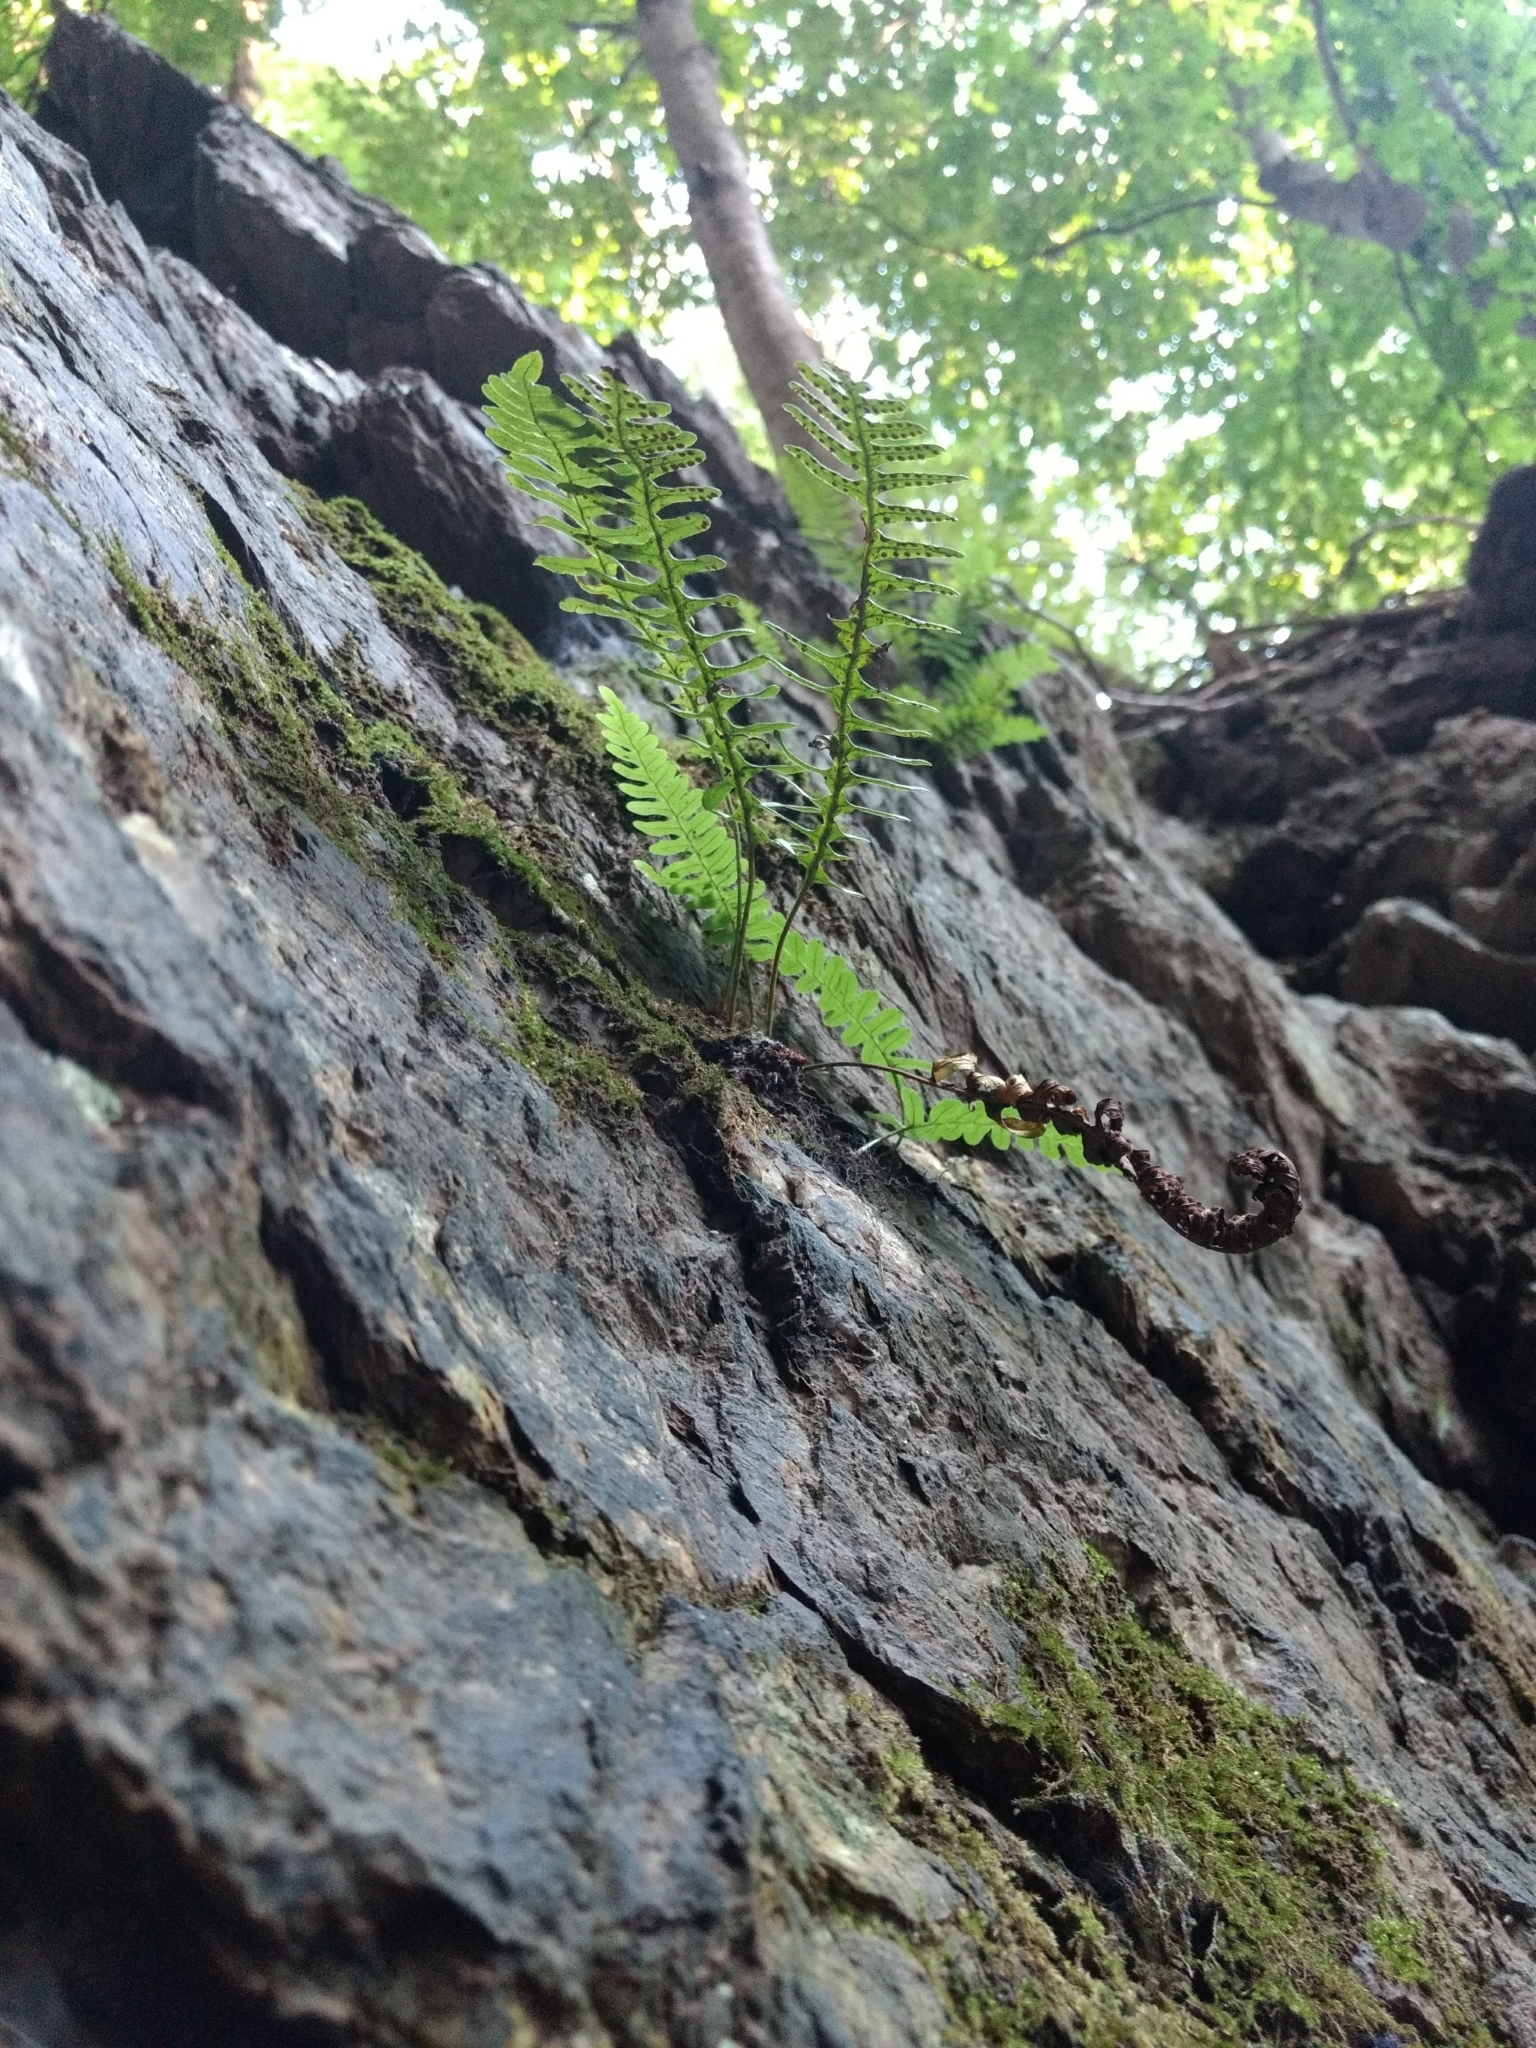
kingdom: Plantae
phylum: Tracheophyta
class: Polypodiopsida
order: Polypodiales
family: Polypodiaceae
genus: Polypodium
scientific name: Polypodium virginianum
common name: American wall fern
